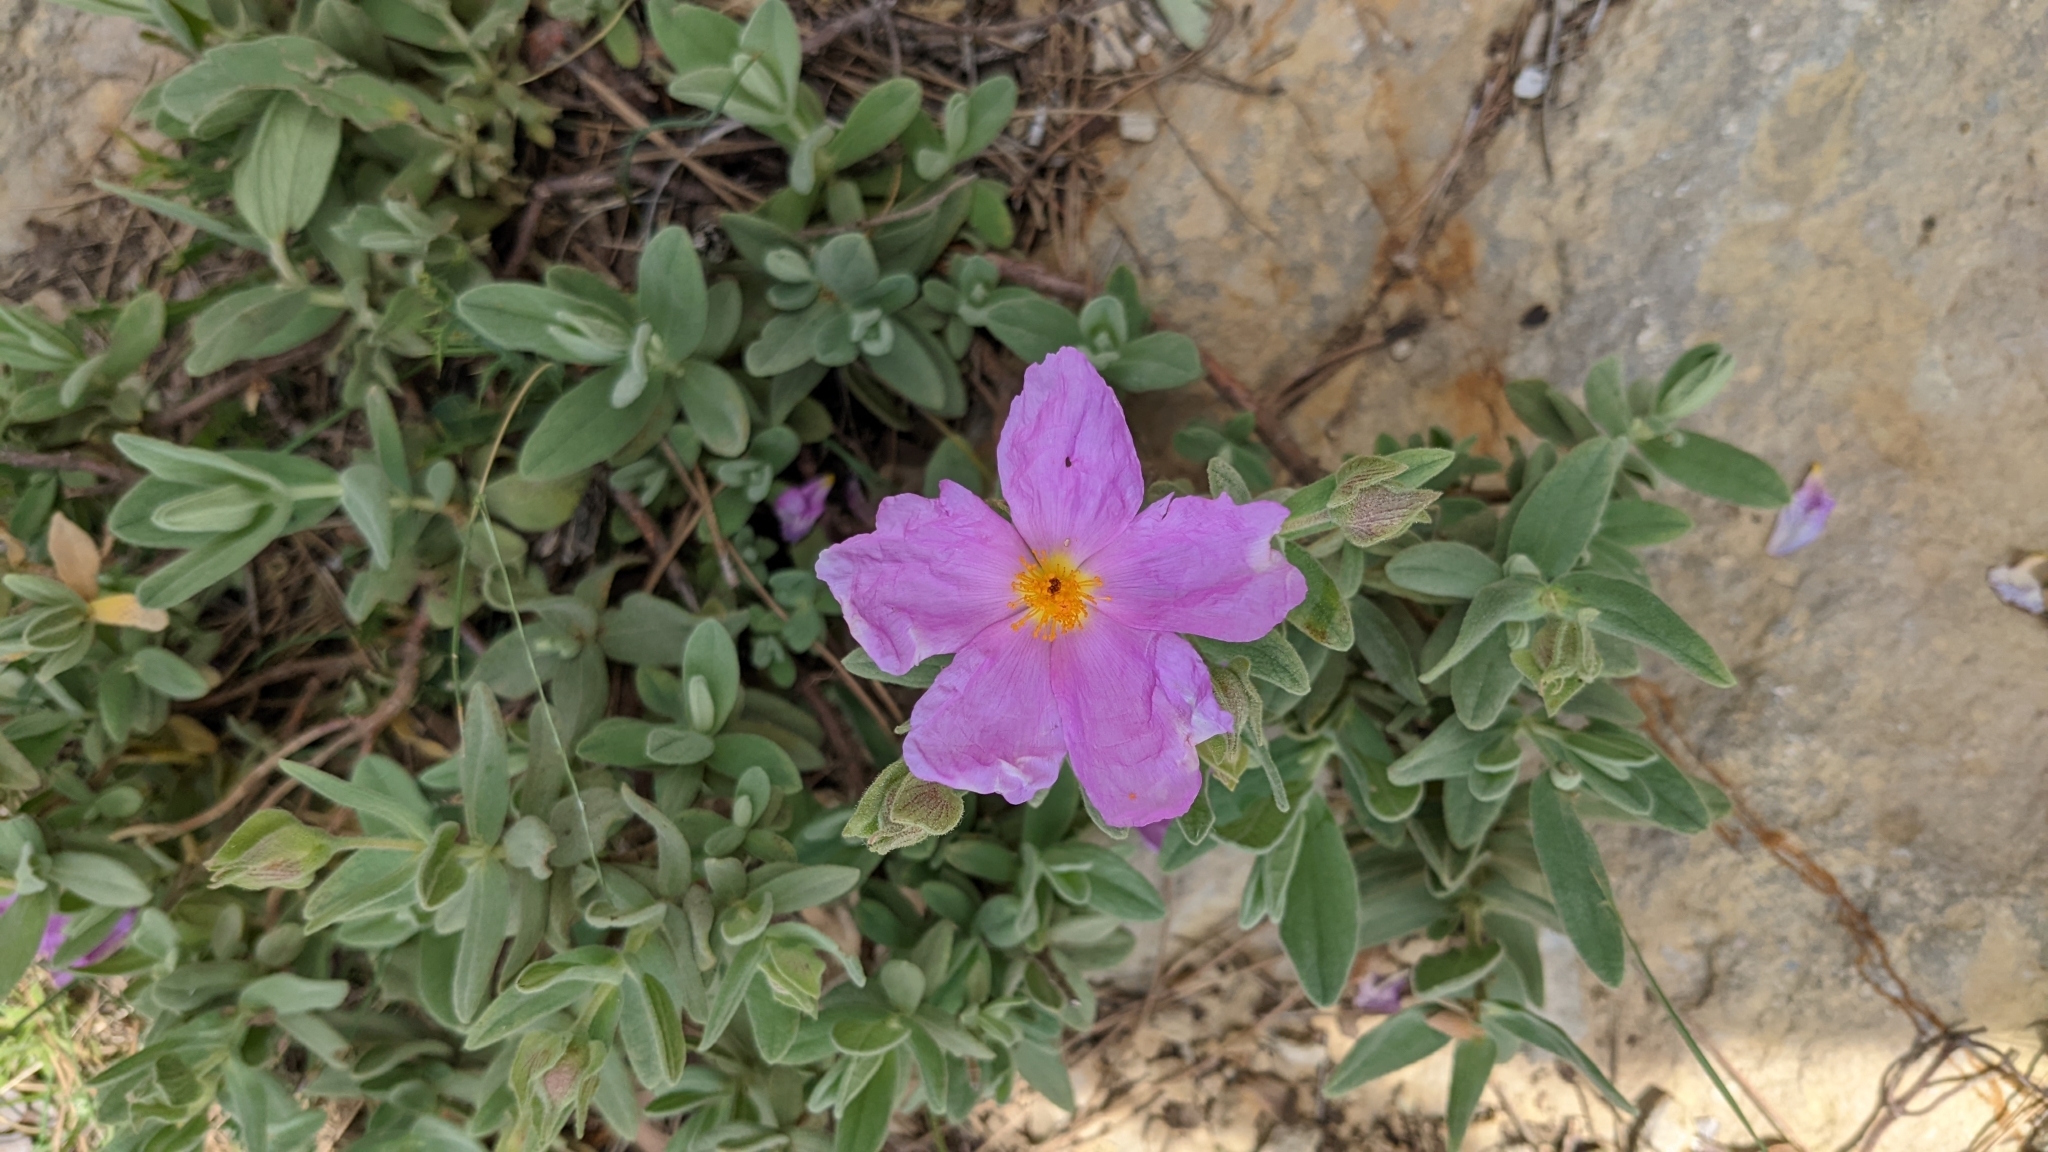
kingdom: Plantae
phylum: Tracheophyta
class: Magnoliopsida
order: Malvales
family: Cistaceae
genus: Cistus
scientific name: Cistus albidus
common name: White-leaf rock-rose
